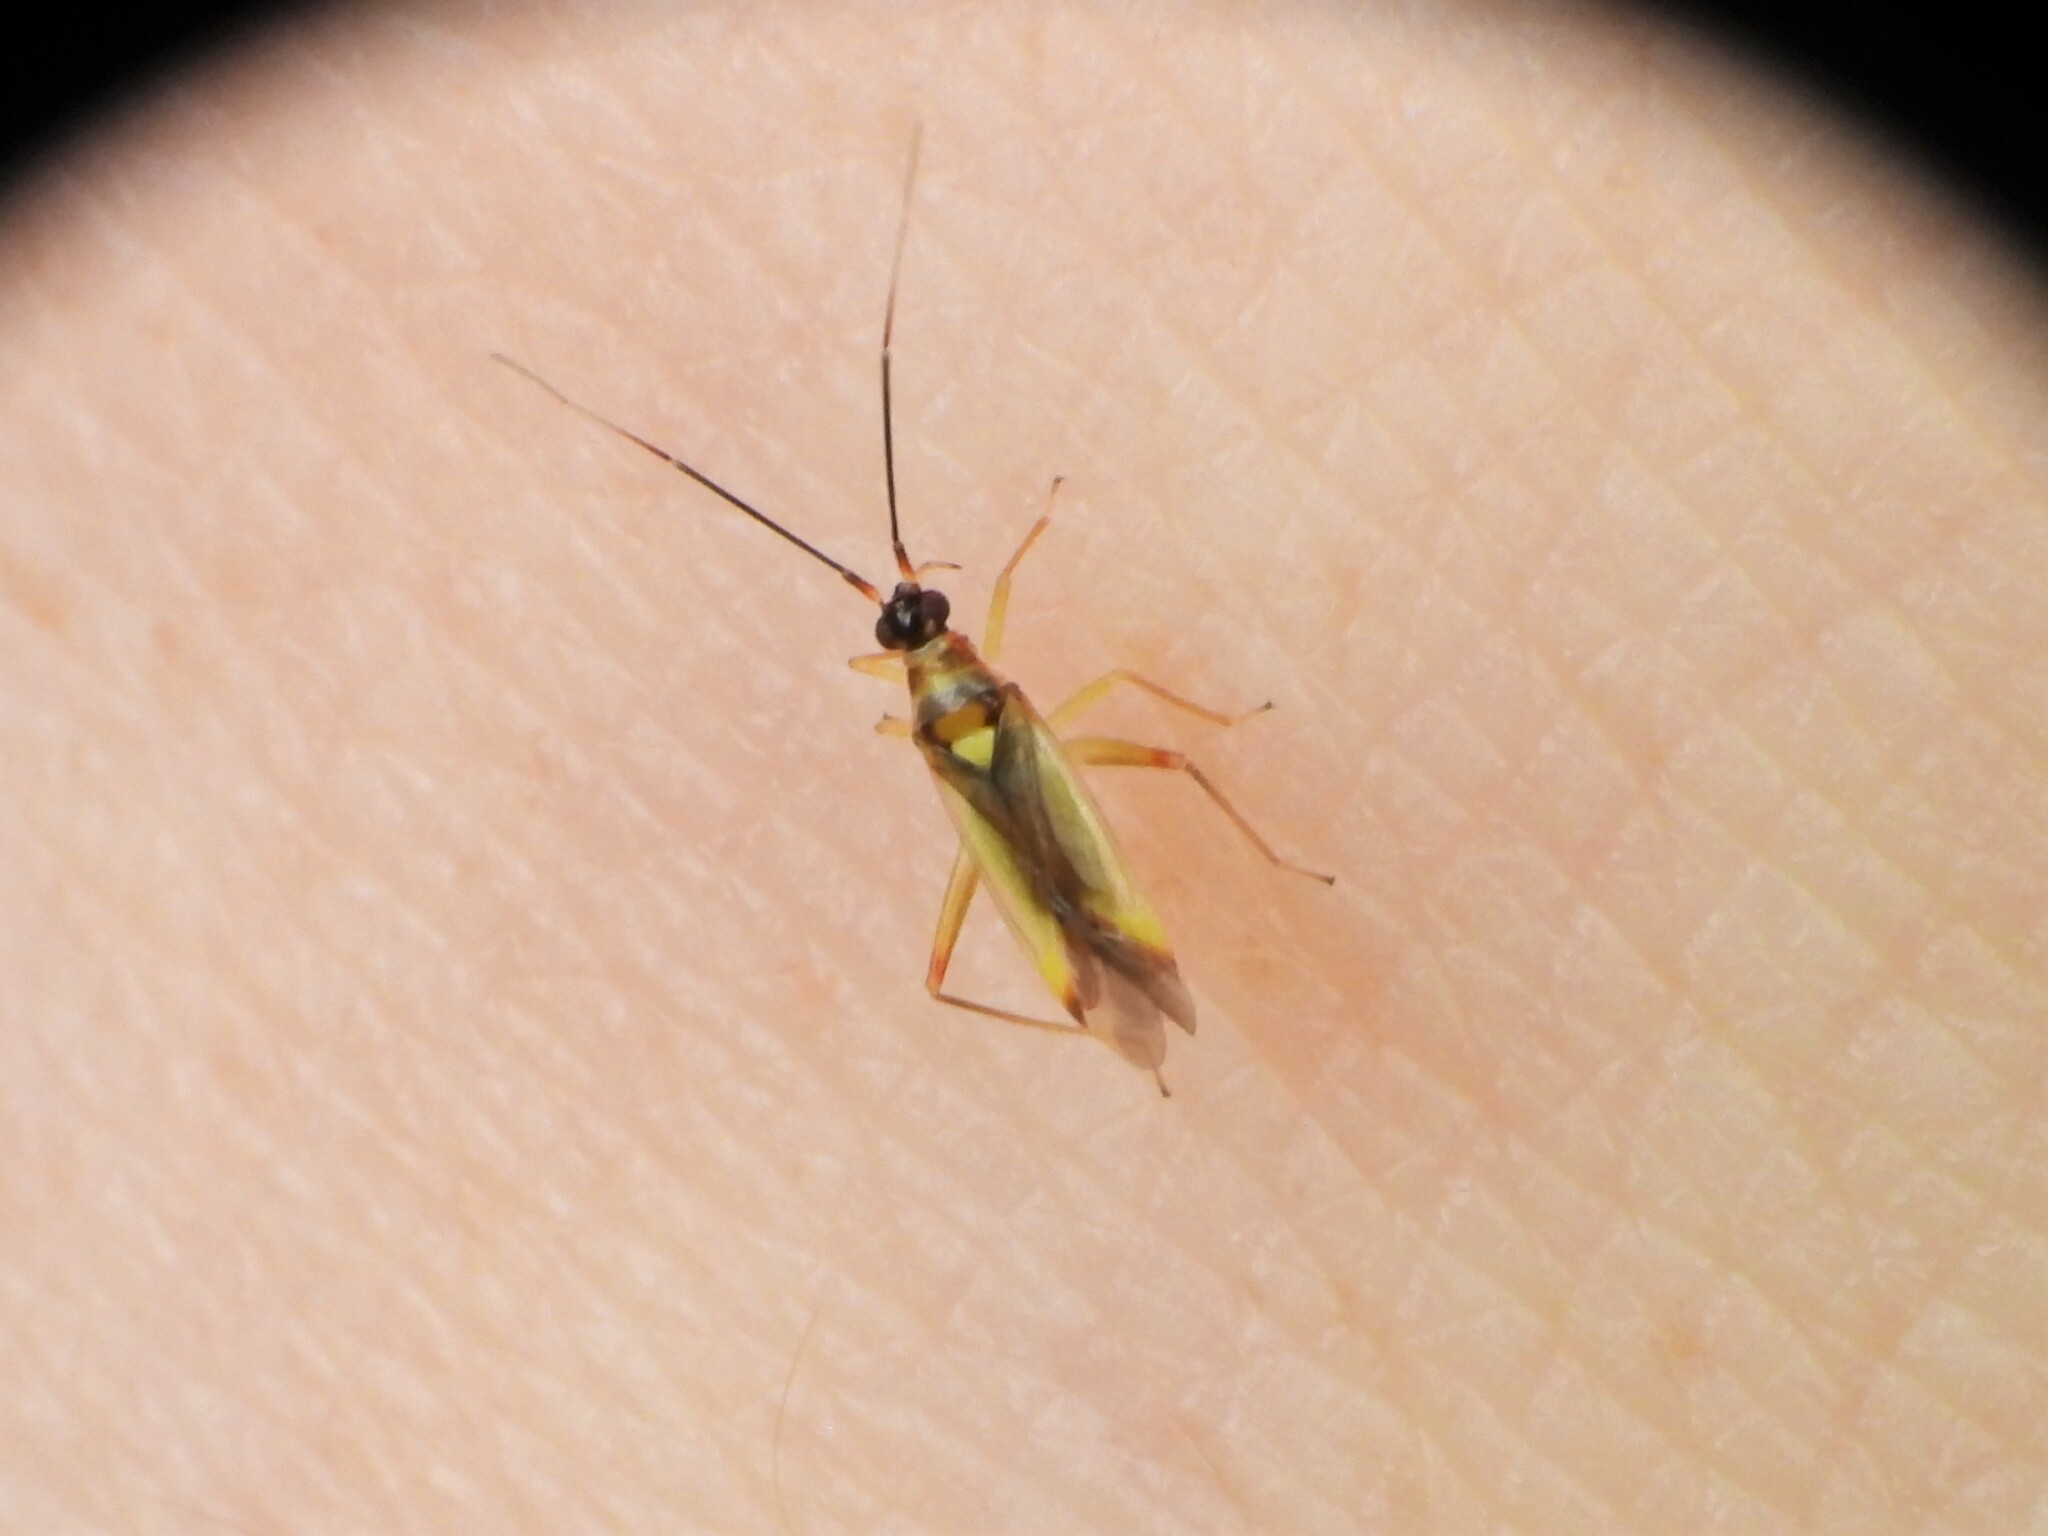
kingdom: Animalia
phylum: Arthropoda
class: Insecta
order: Hemiptera
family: Miridae
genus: Campyloneura
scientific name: Campyloneura virgula
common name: Predatory bug
